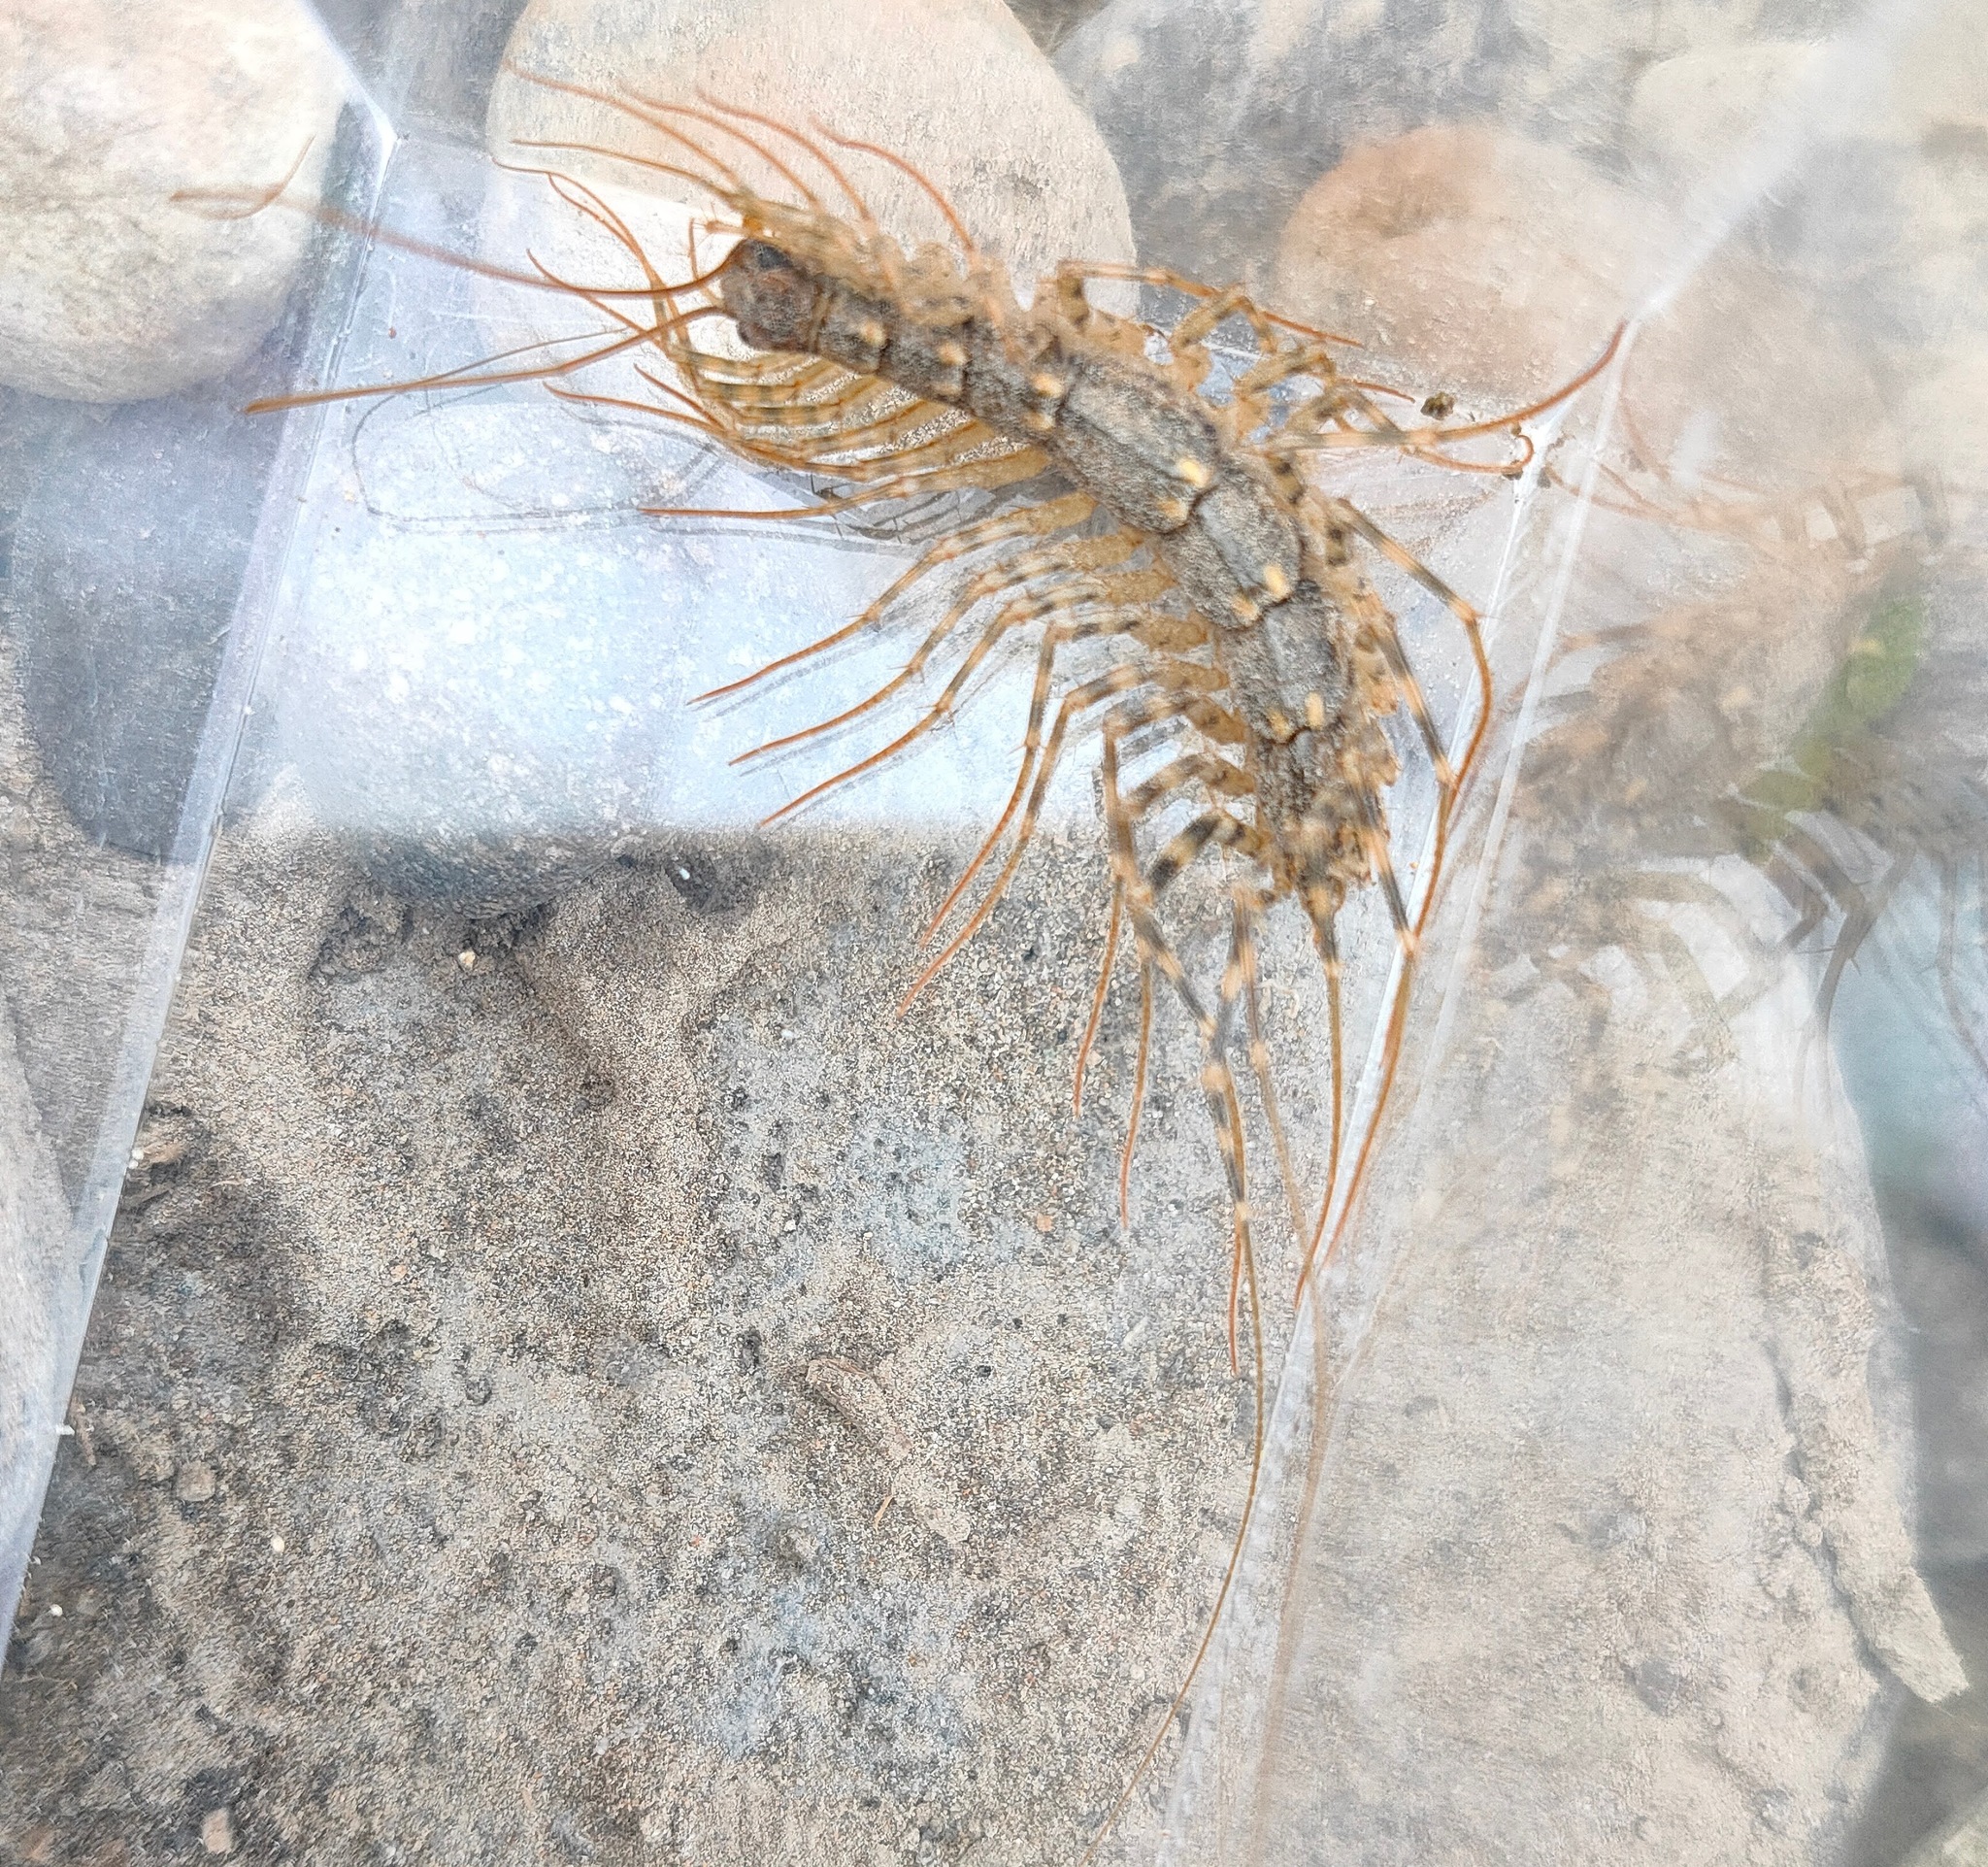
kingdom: Animalia
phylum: Arthropoda
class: Chilopoda
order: Scutigeromorpha
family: Scutigeridae
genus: Thereuonema
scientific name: Thereuonema tuberculata
